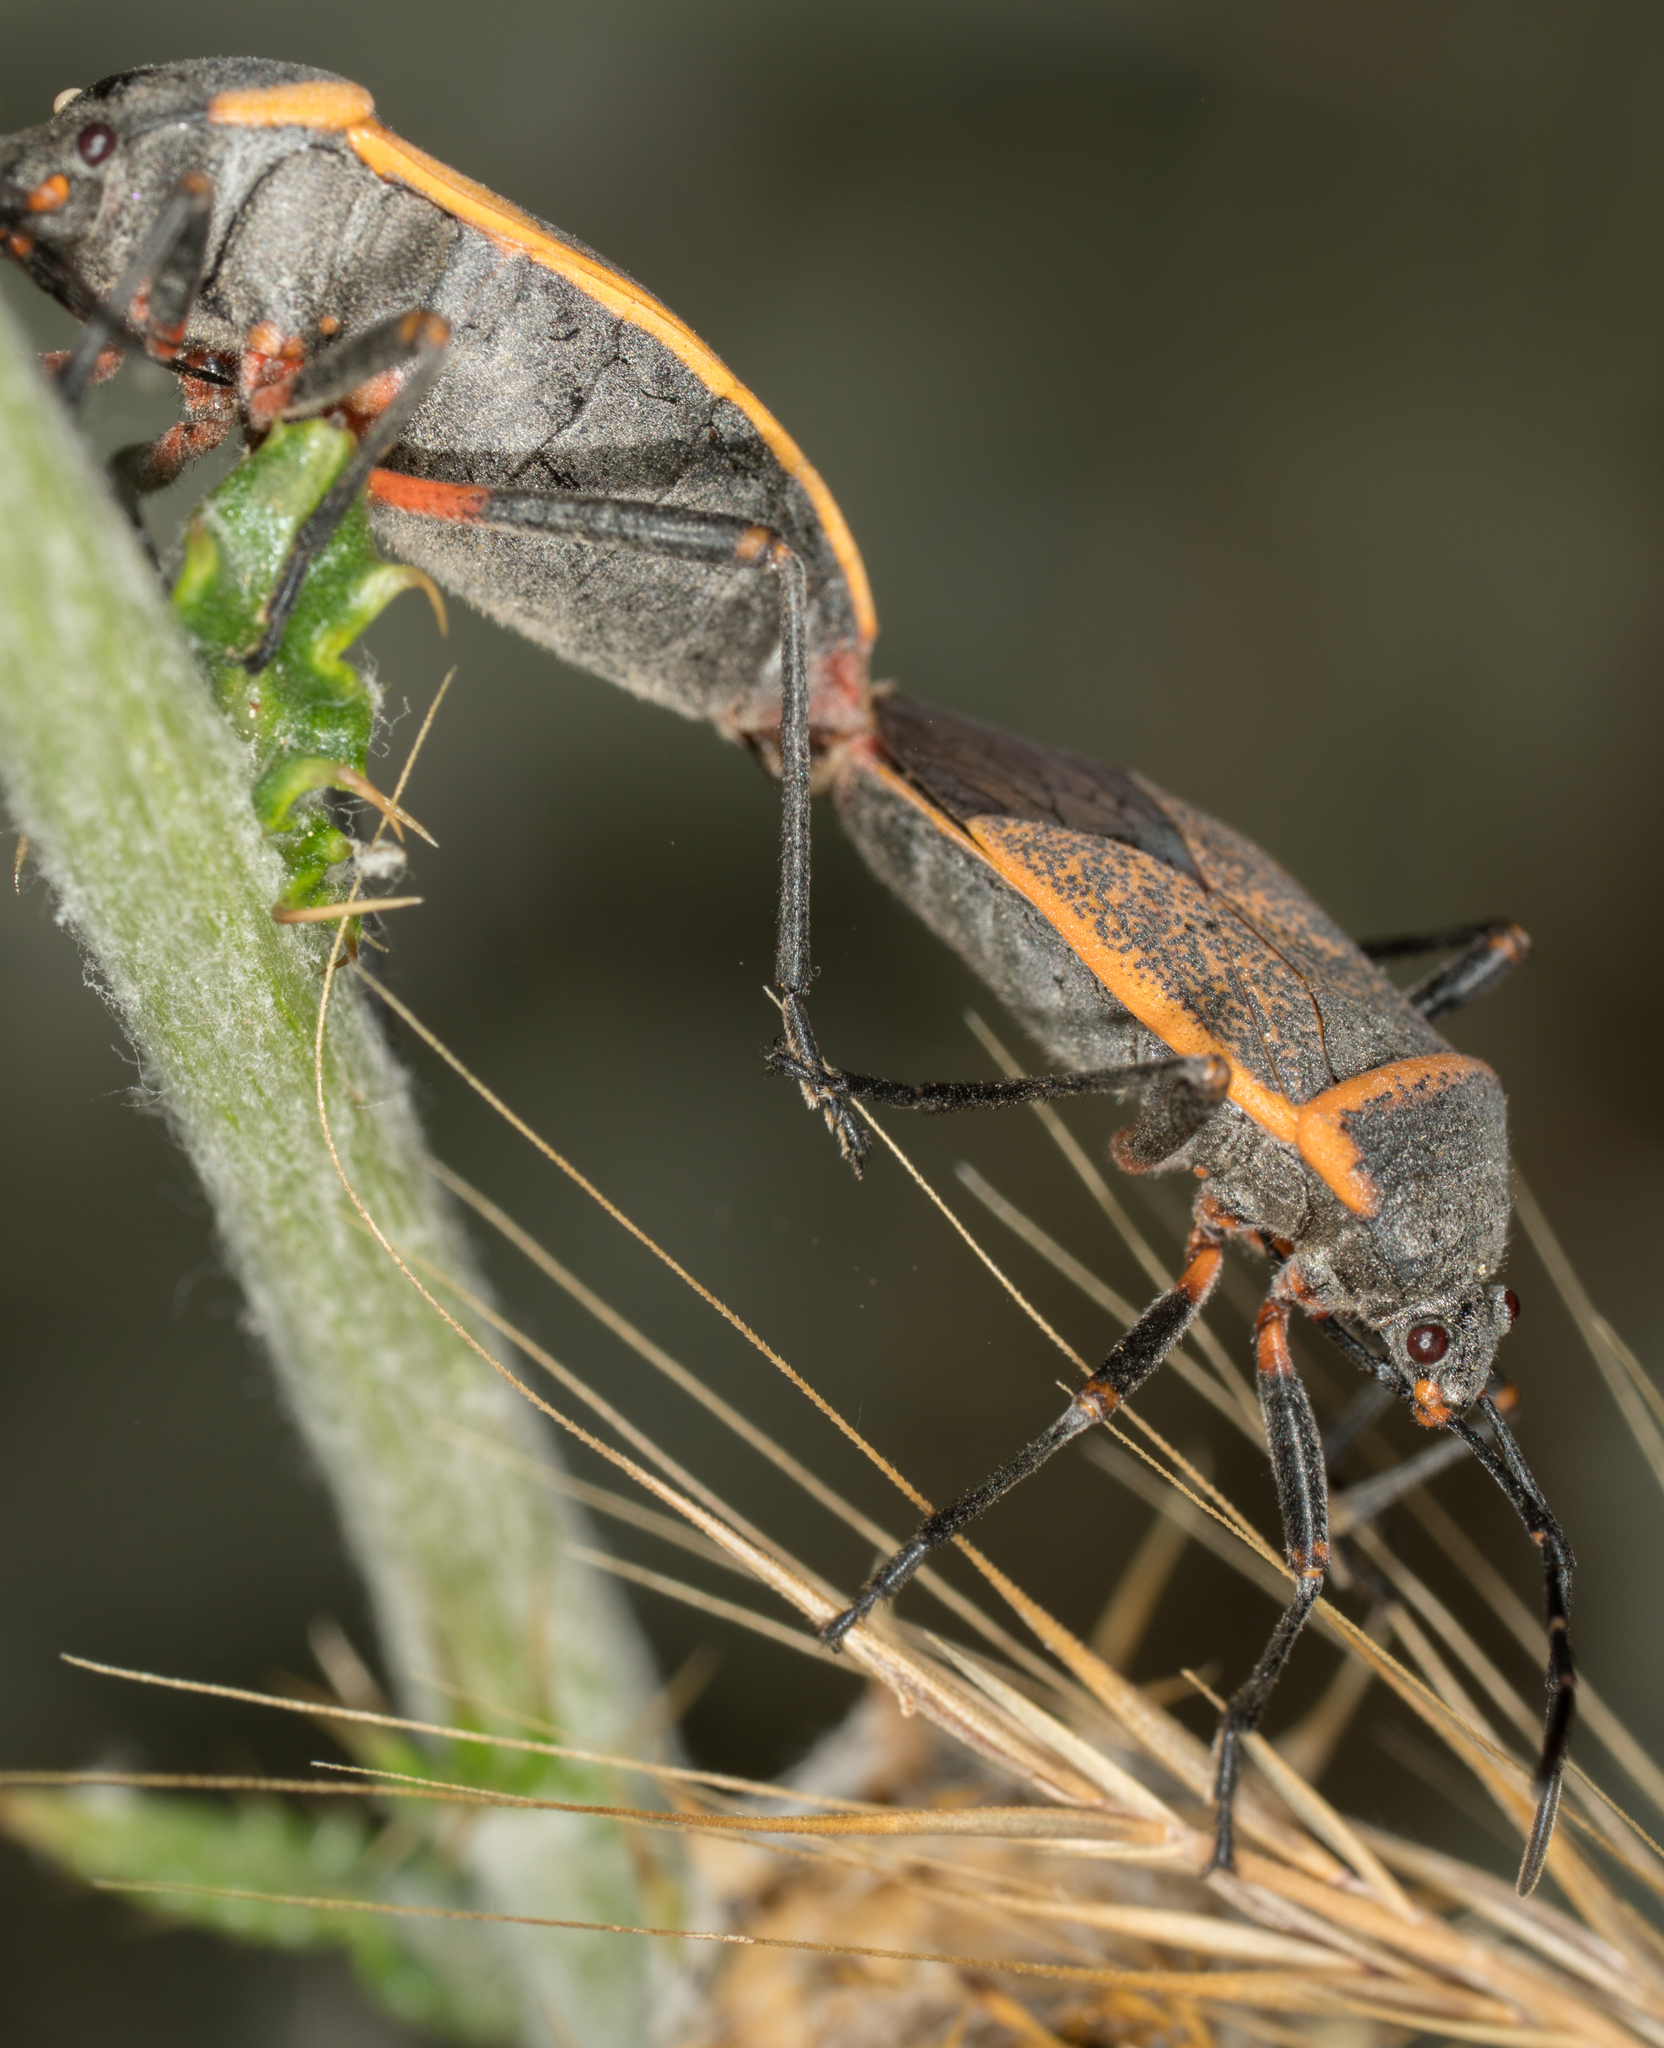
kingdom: Animalia
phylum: Arthropoda
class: Insecta
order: Hemiptera
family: Largidae
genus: Largus
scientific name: Largus californicus
